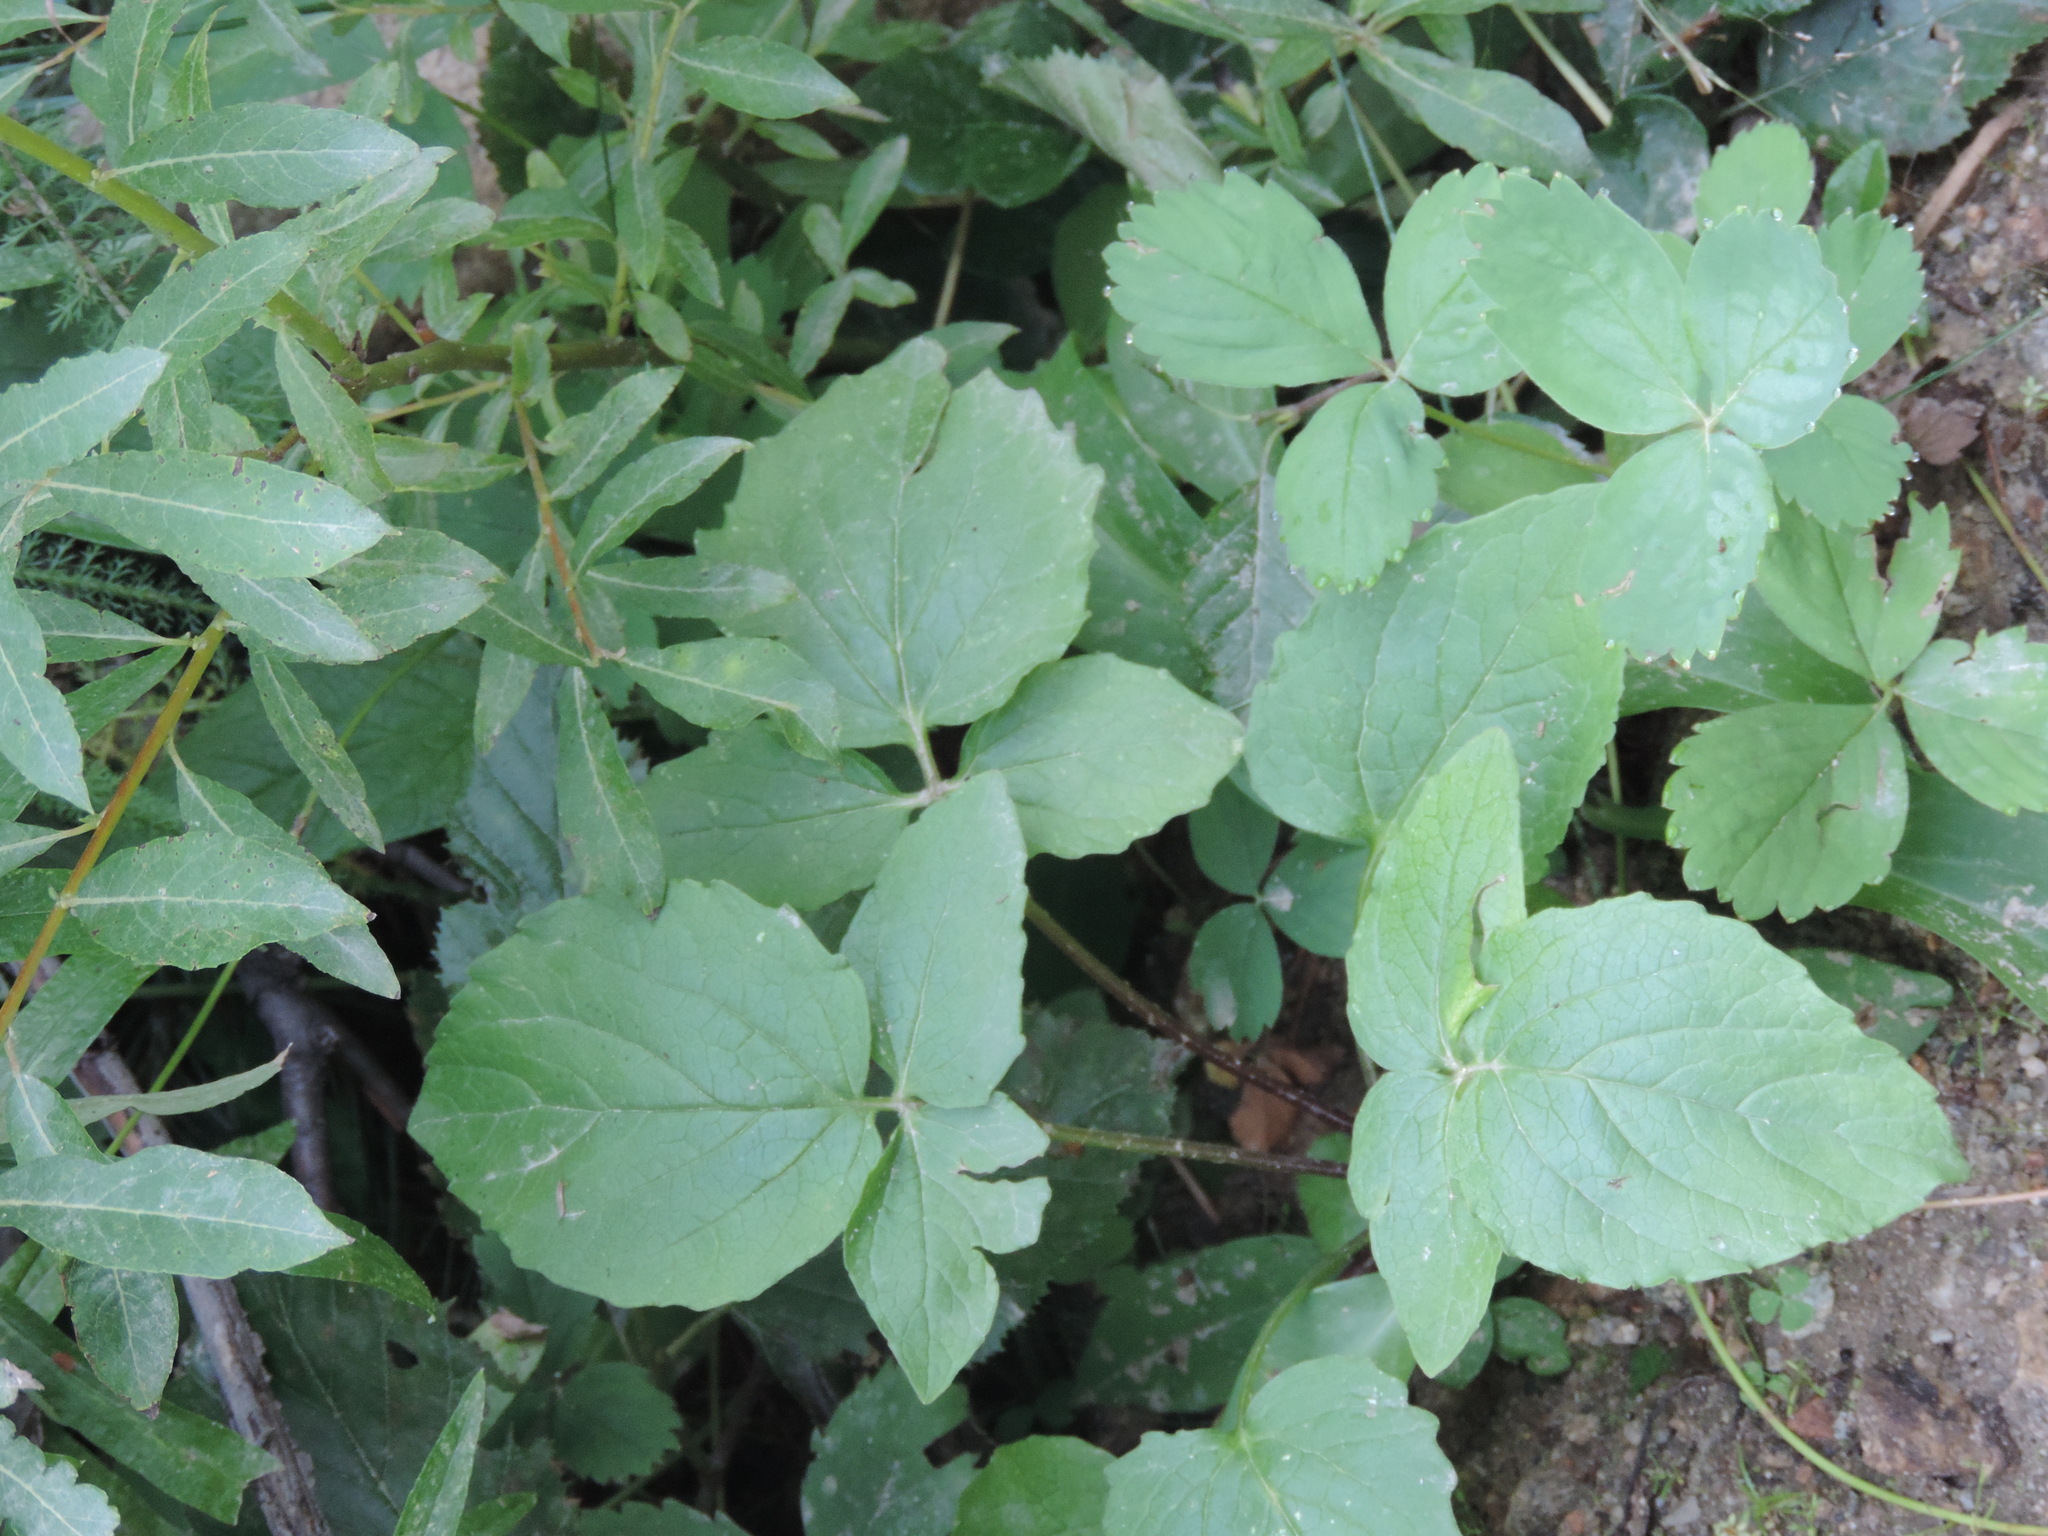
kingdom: Plantae
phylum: Tracheophyta
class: Magnoliopsida
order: Dipsacales
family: Caprifoliaceae
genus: Valeriana
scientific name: Valeriana sitchensis
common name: Pacific valerian
